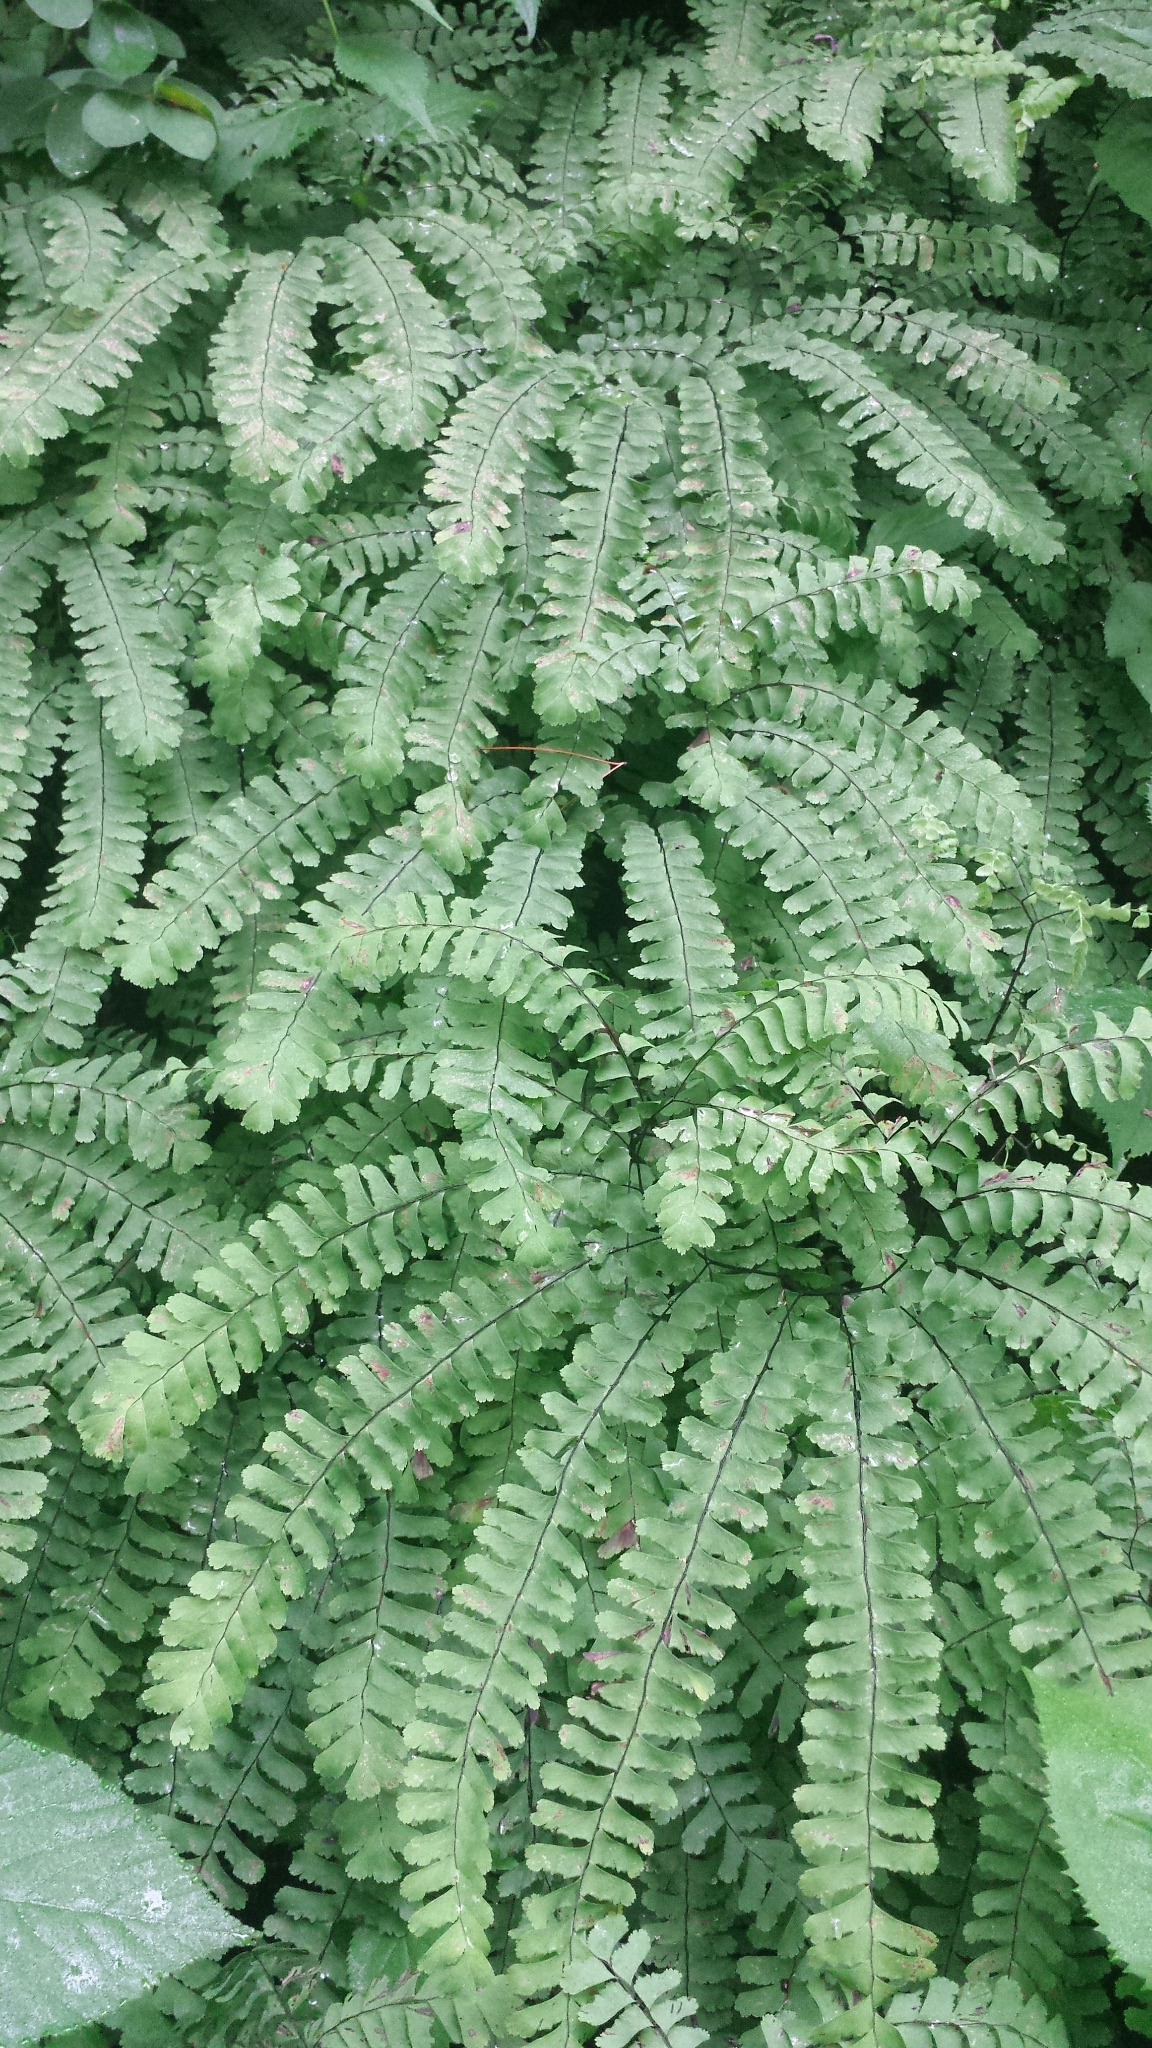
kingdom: Plantae
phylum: Tracheophyta
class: Polypodiopsida
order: Polypodiales
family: Pteridaceae
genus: Adiantum
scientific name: Adiantum pedatum
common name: Five-finger fern
